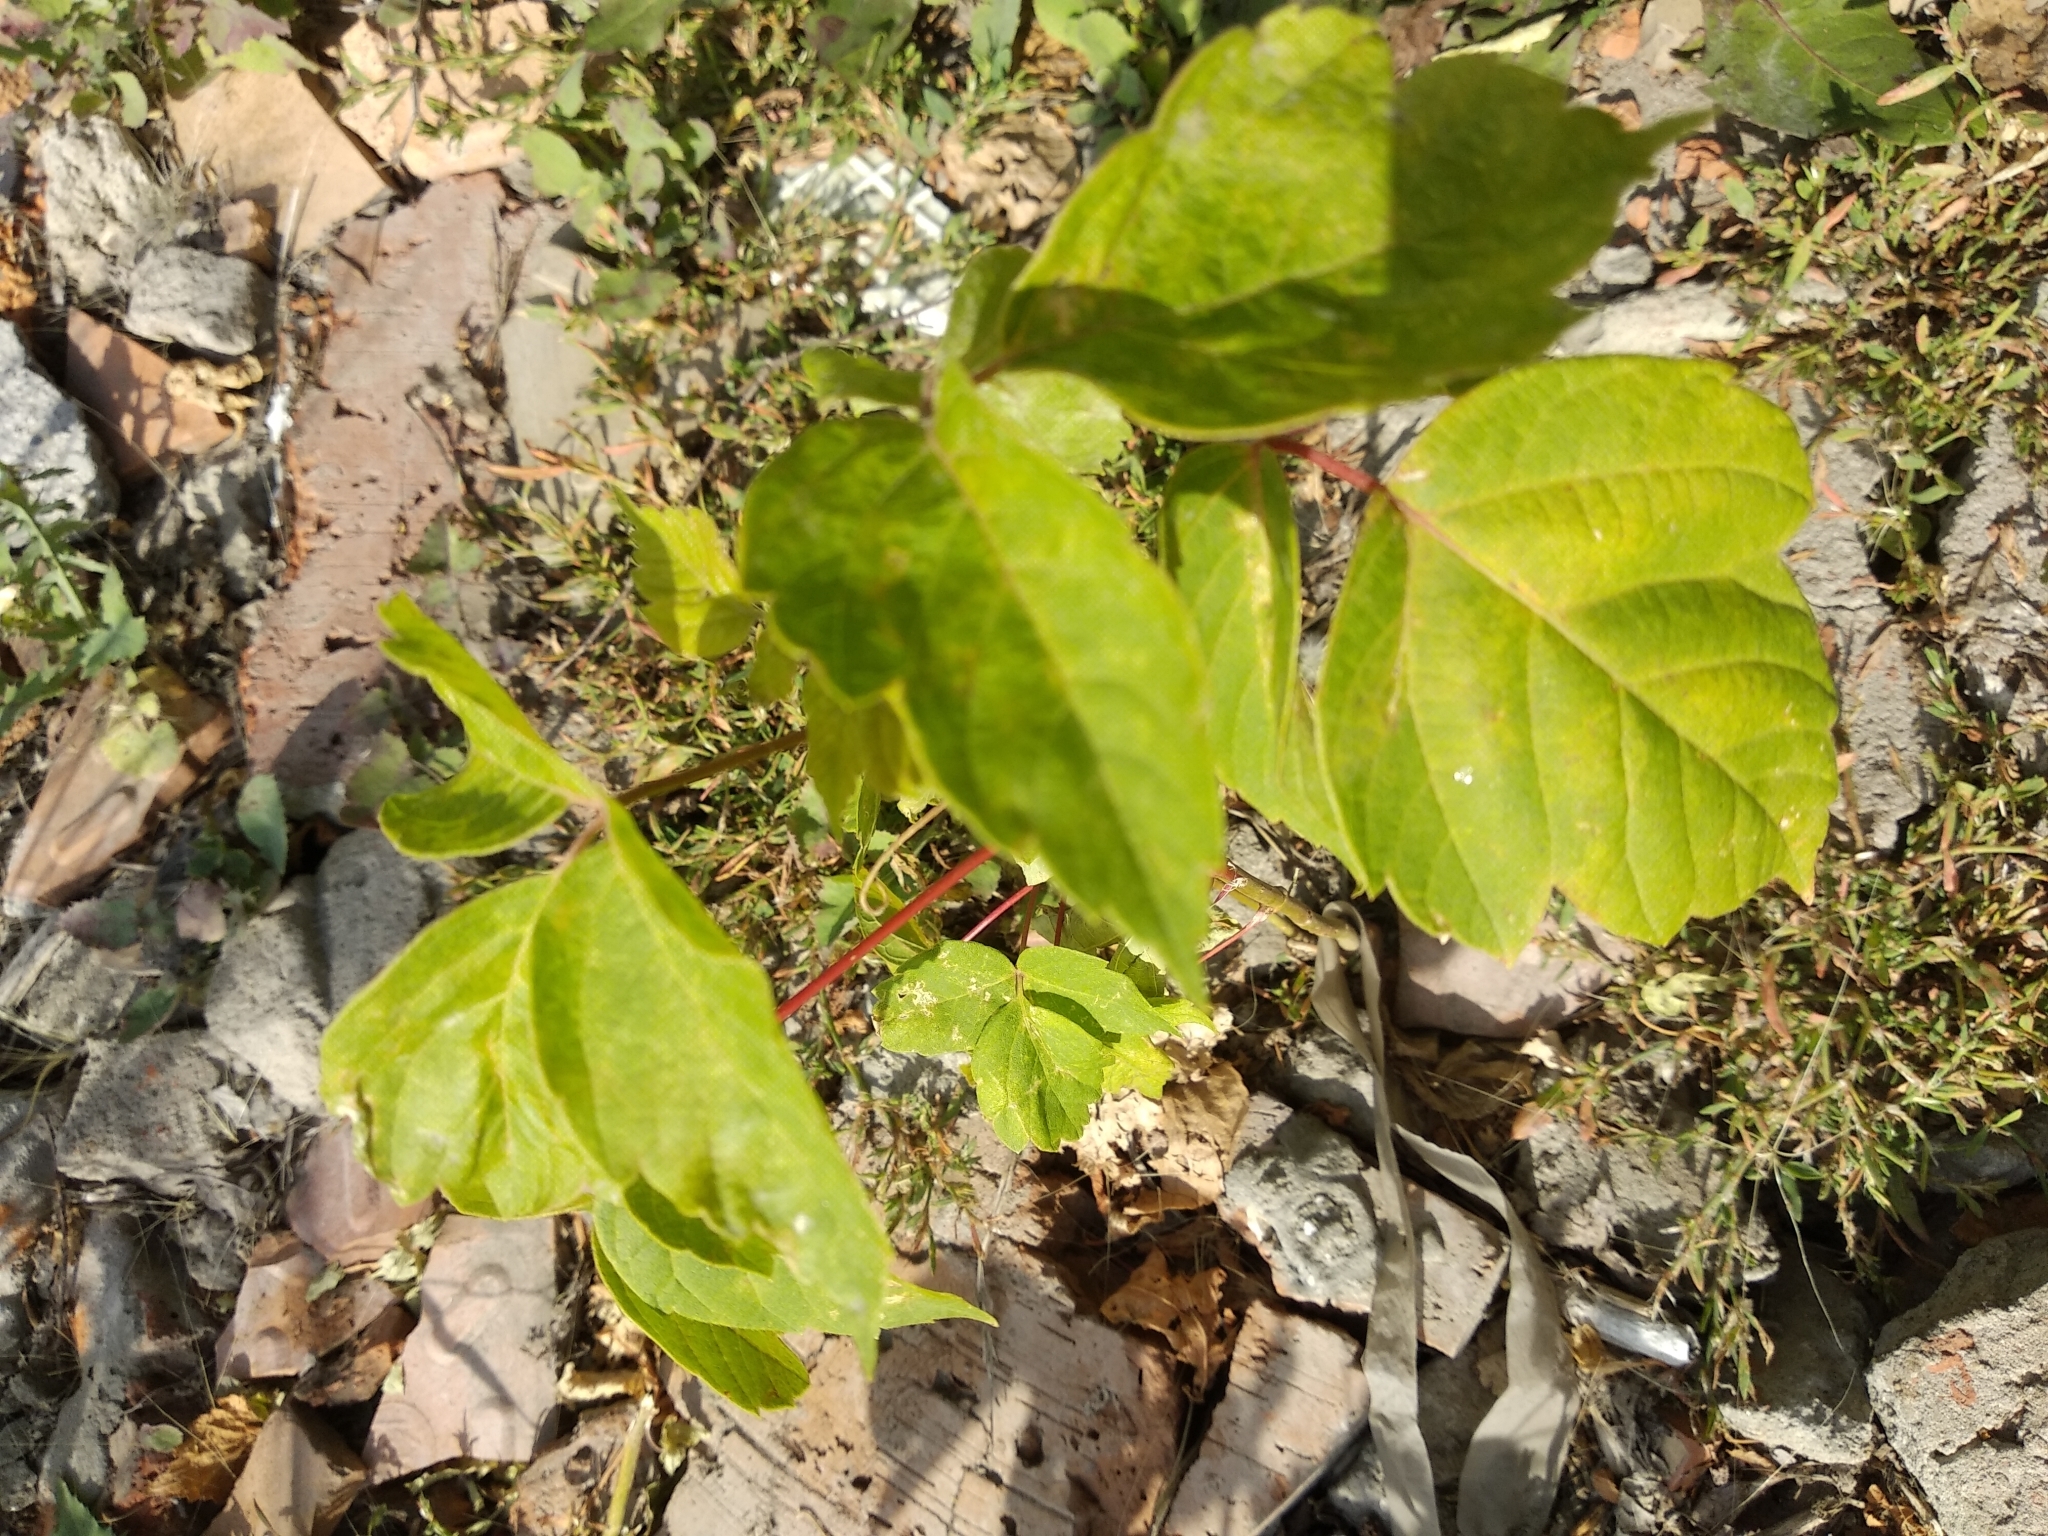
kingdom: Plantae
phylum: Tracheophyta
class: Magnoliopsida
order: Sapindales
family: Sapindaceae
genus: Acer
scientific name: Acer negundo
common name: Ashleaf maple
